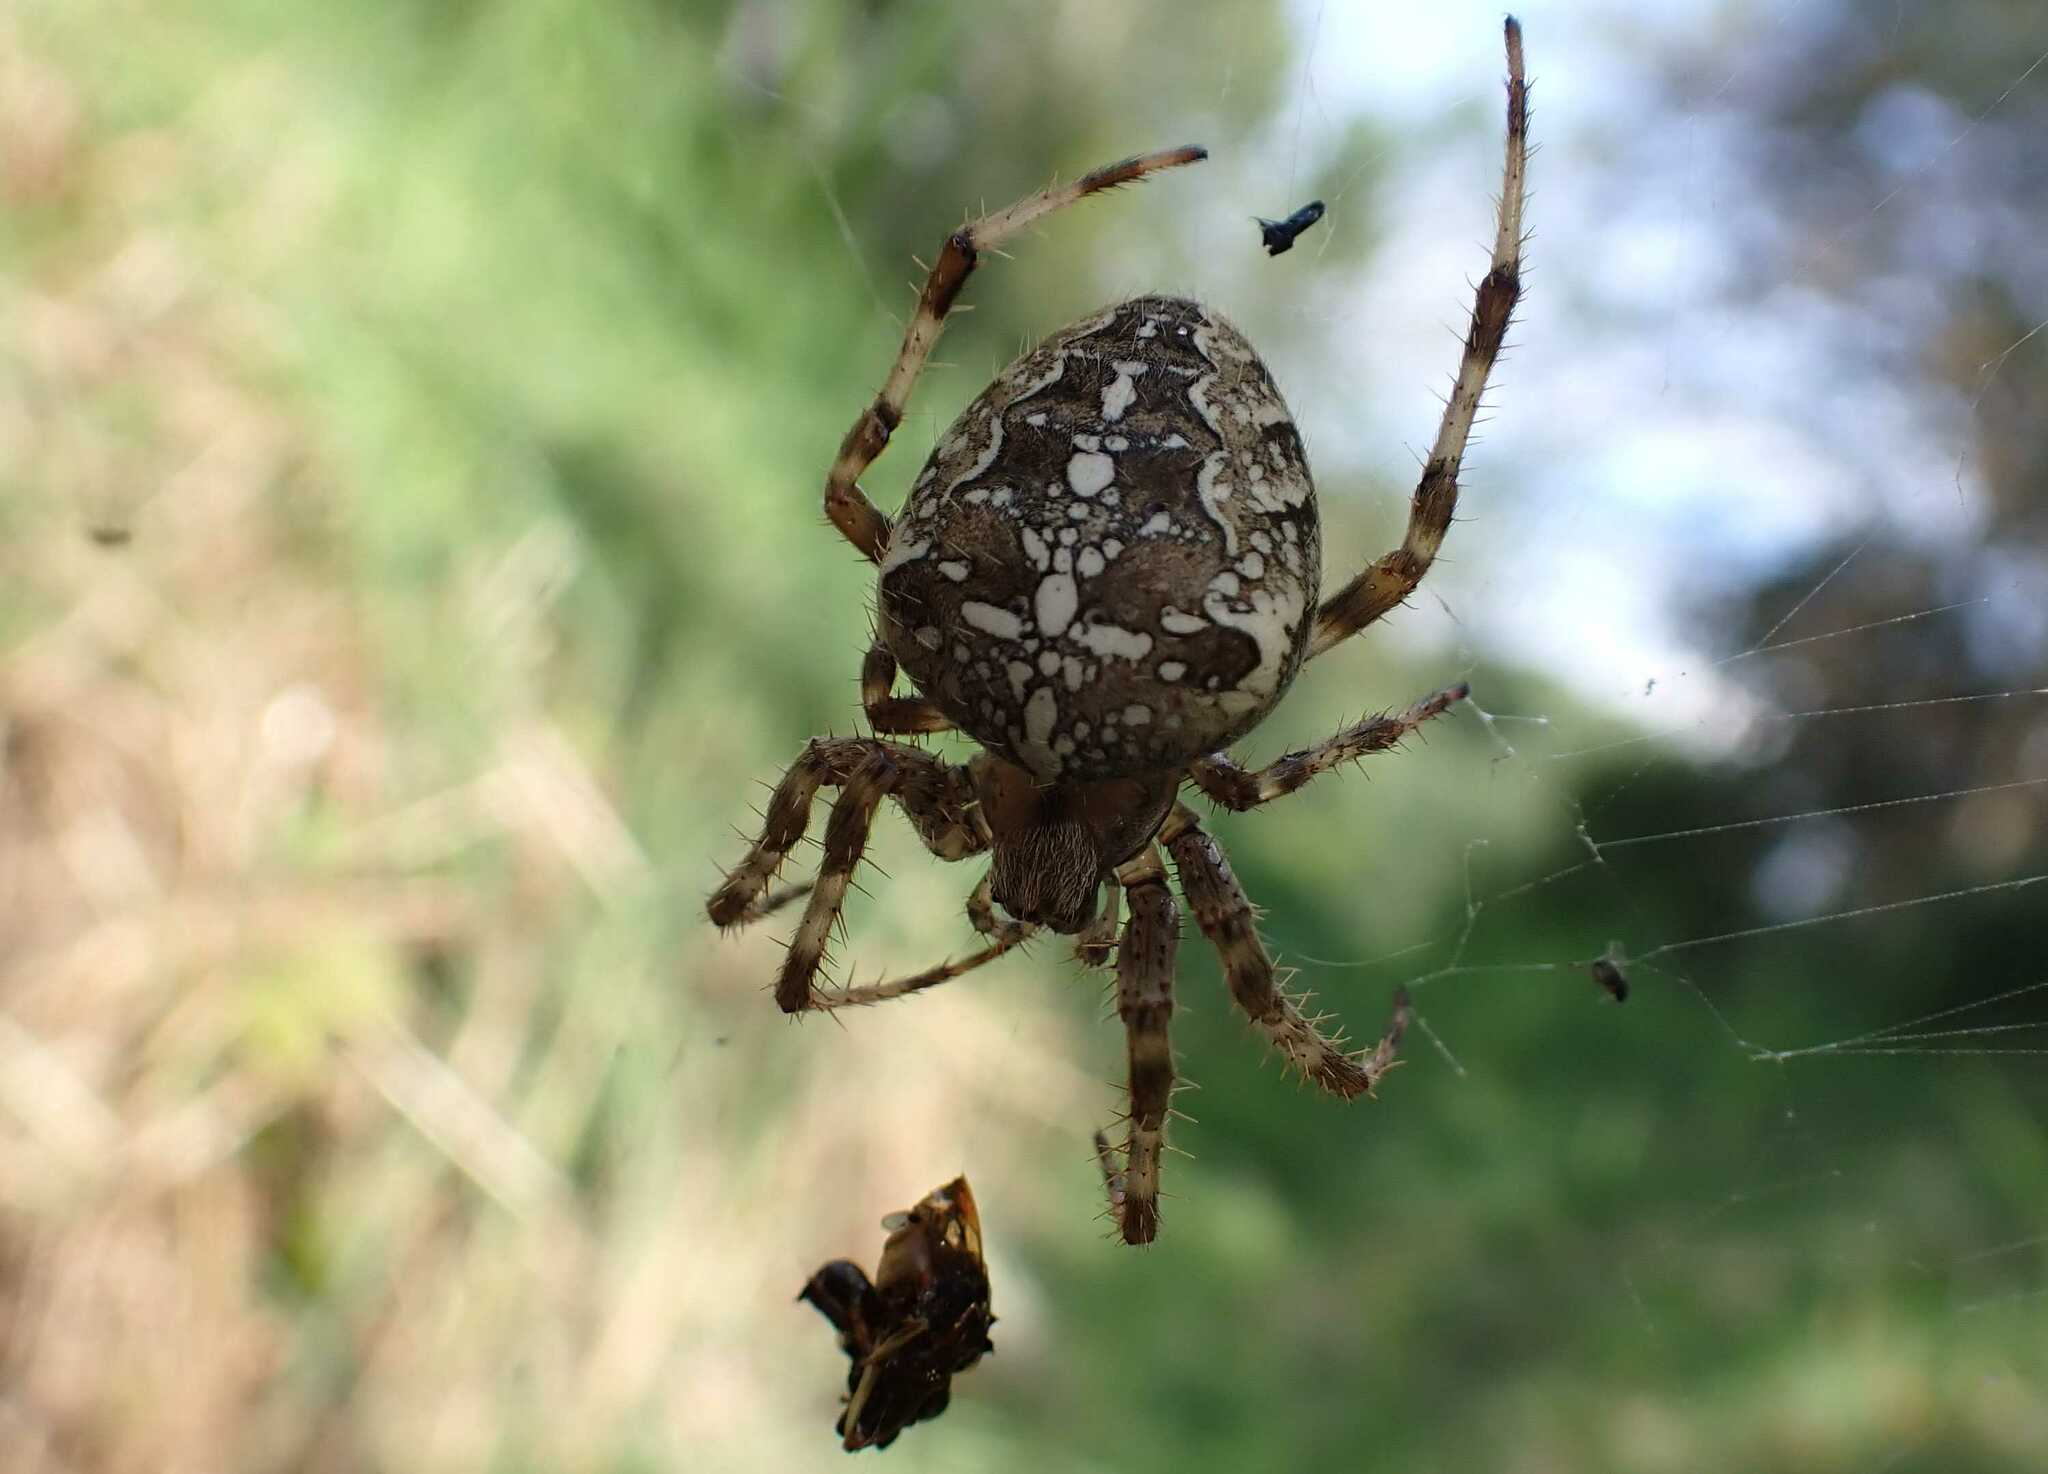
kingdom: Animalia
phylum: Arthropoda
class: Arachnida
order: Araneae
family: Araneidae
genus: Araneus
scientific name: Araneus diadematus
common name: Cross orbweaver
